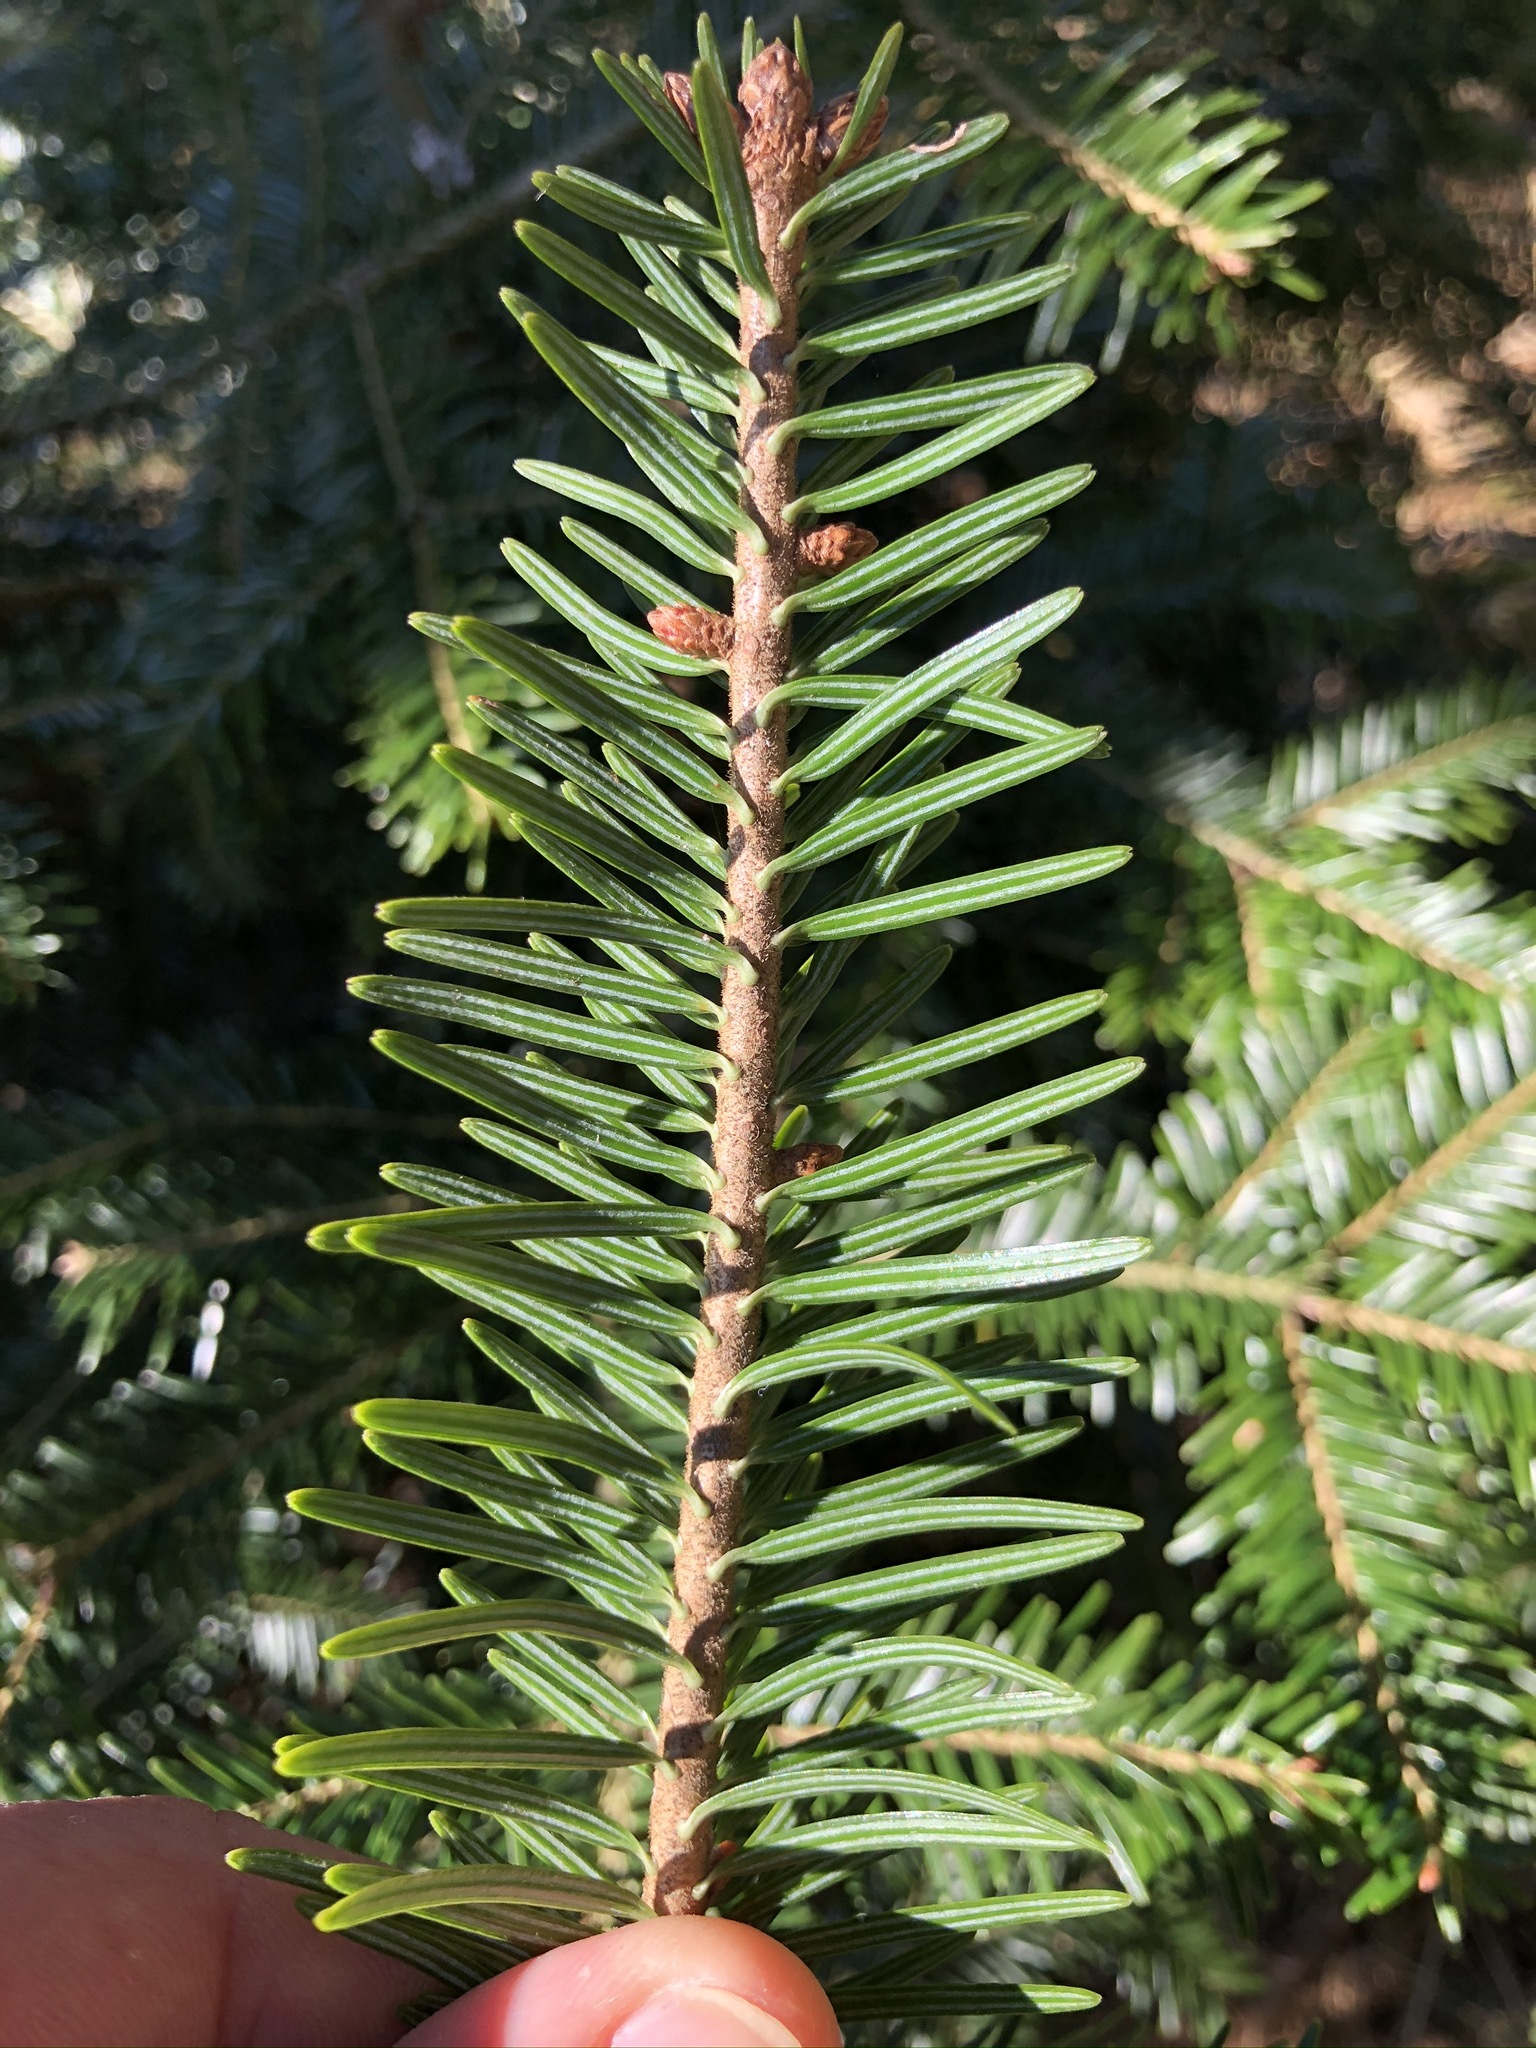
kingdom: Plantae
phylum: Tracheophyta
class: Pinopsida
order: Pinales
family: Pinaceae
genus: Abies
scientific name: Abies alba
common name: Silver fir
